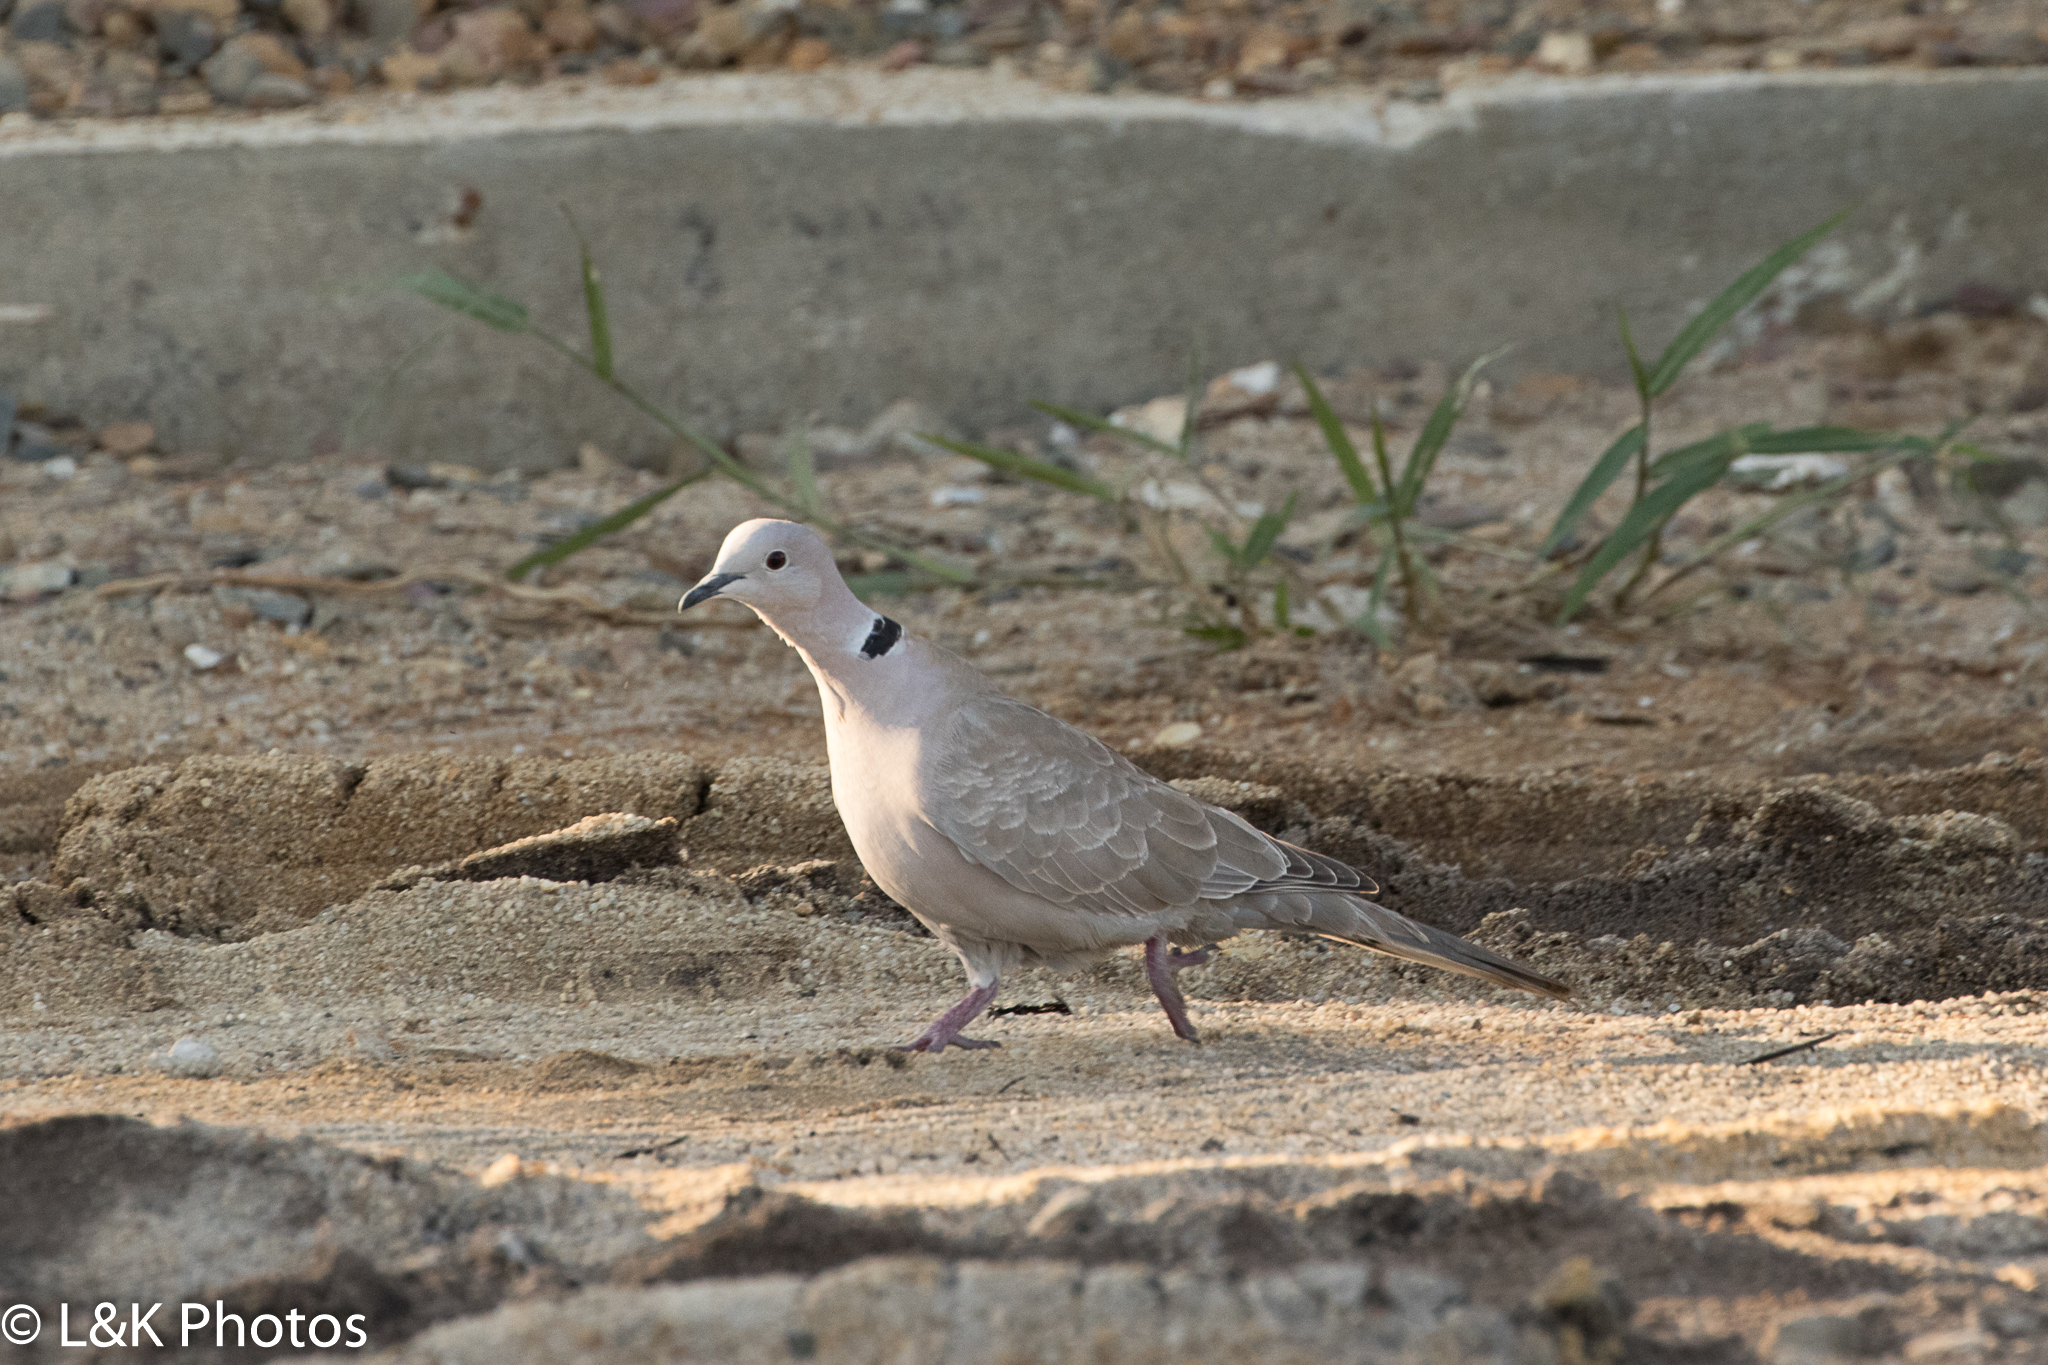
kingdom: Animalia
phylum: Chordata
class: Aves
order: Columbiformes
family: Columbidae
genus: Streptopelia
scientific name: Streptopelia decaocto
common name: Eurasian collared dove
